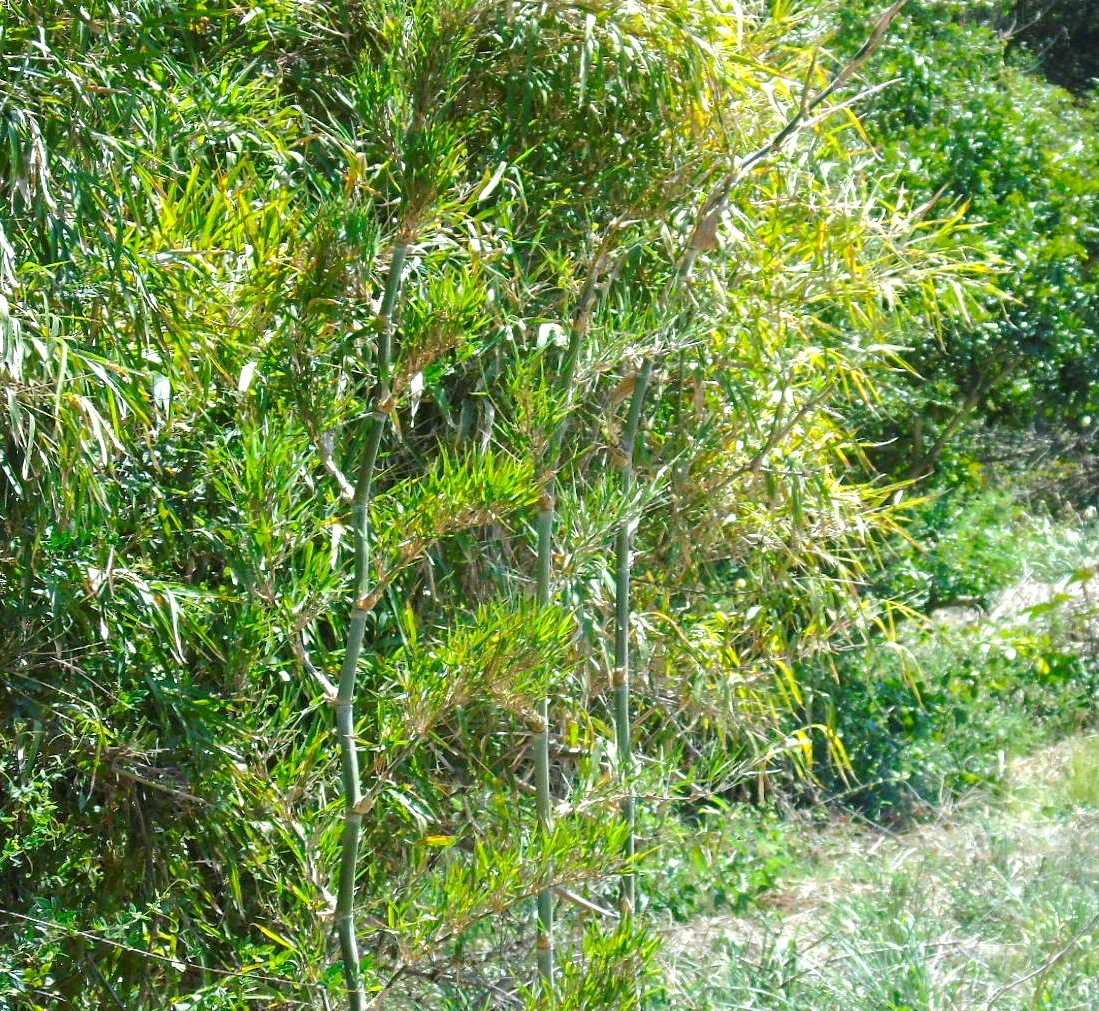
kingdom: Plantae
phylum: Tracheophyta
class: Liliopsida
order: Poales
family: Poaceae
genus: Guadua
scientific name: Guadua paniculata
